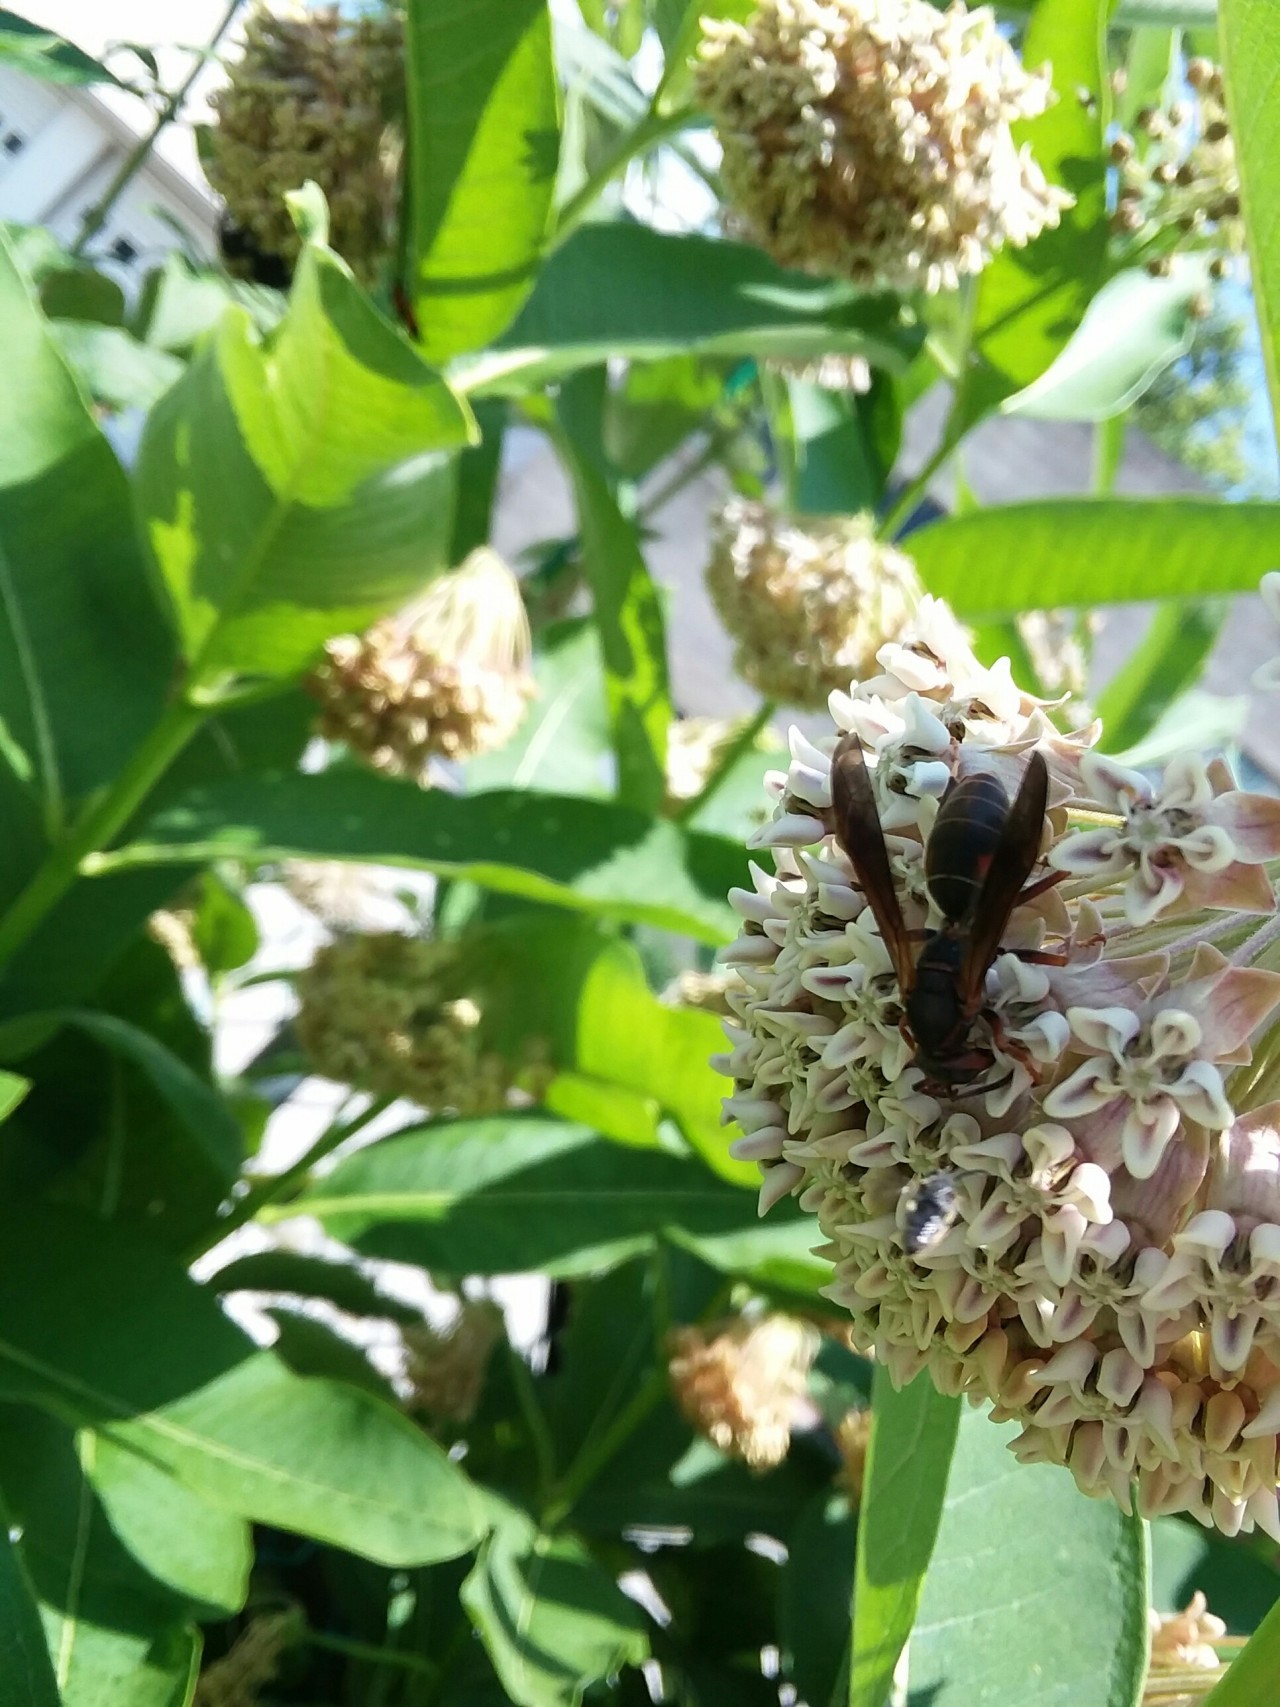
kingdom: Plantae
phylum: Tracheophyta
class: Magnoliopsida
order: Gentianales
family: Apocynaceae
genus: Asclepias
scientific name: Asclepias syriaca
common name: Common milkweed
